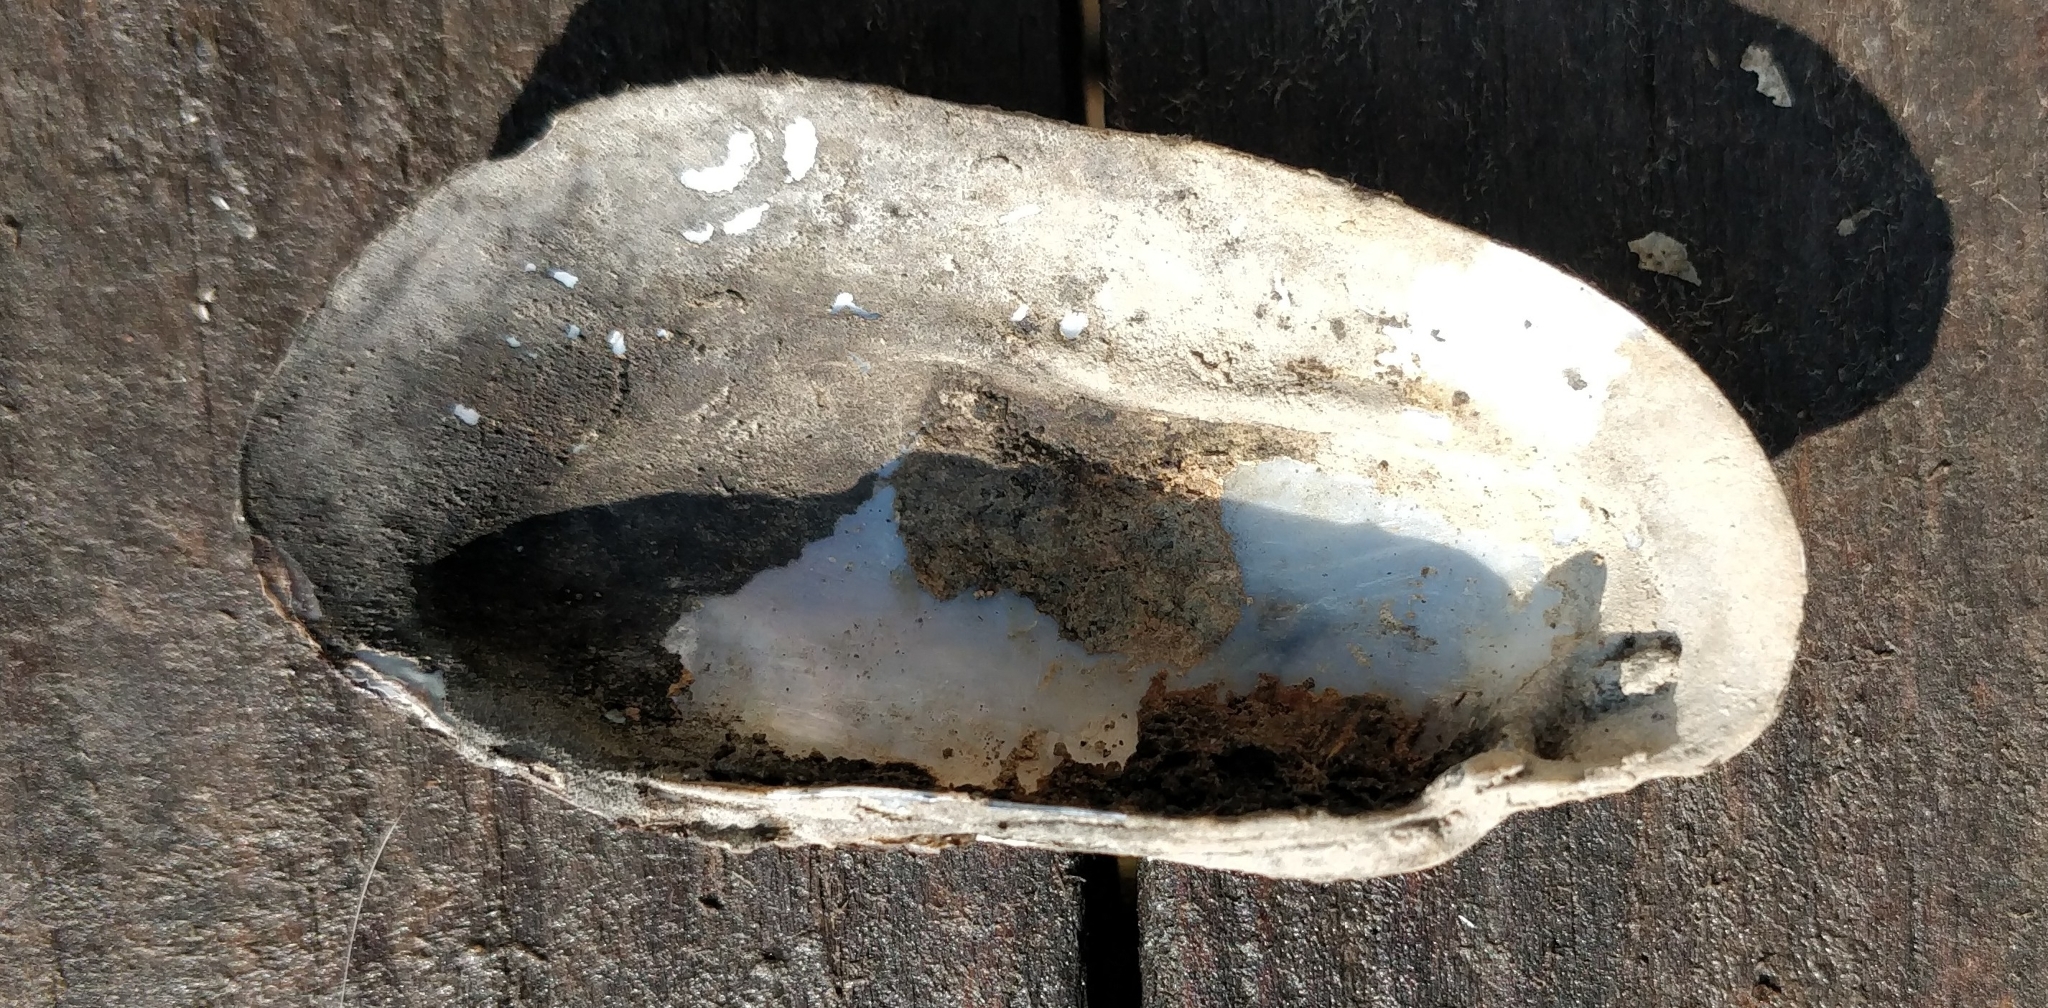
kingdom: Animalia
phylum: Mollusca
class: Bivalvia
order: Unionida
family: Unionidae
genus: Lampsilis
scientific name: Lampsilis teres
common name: Yellow sandshell
